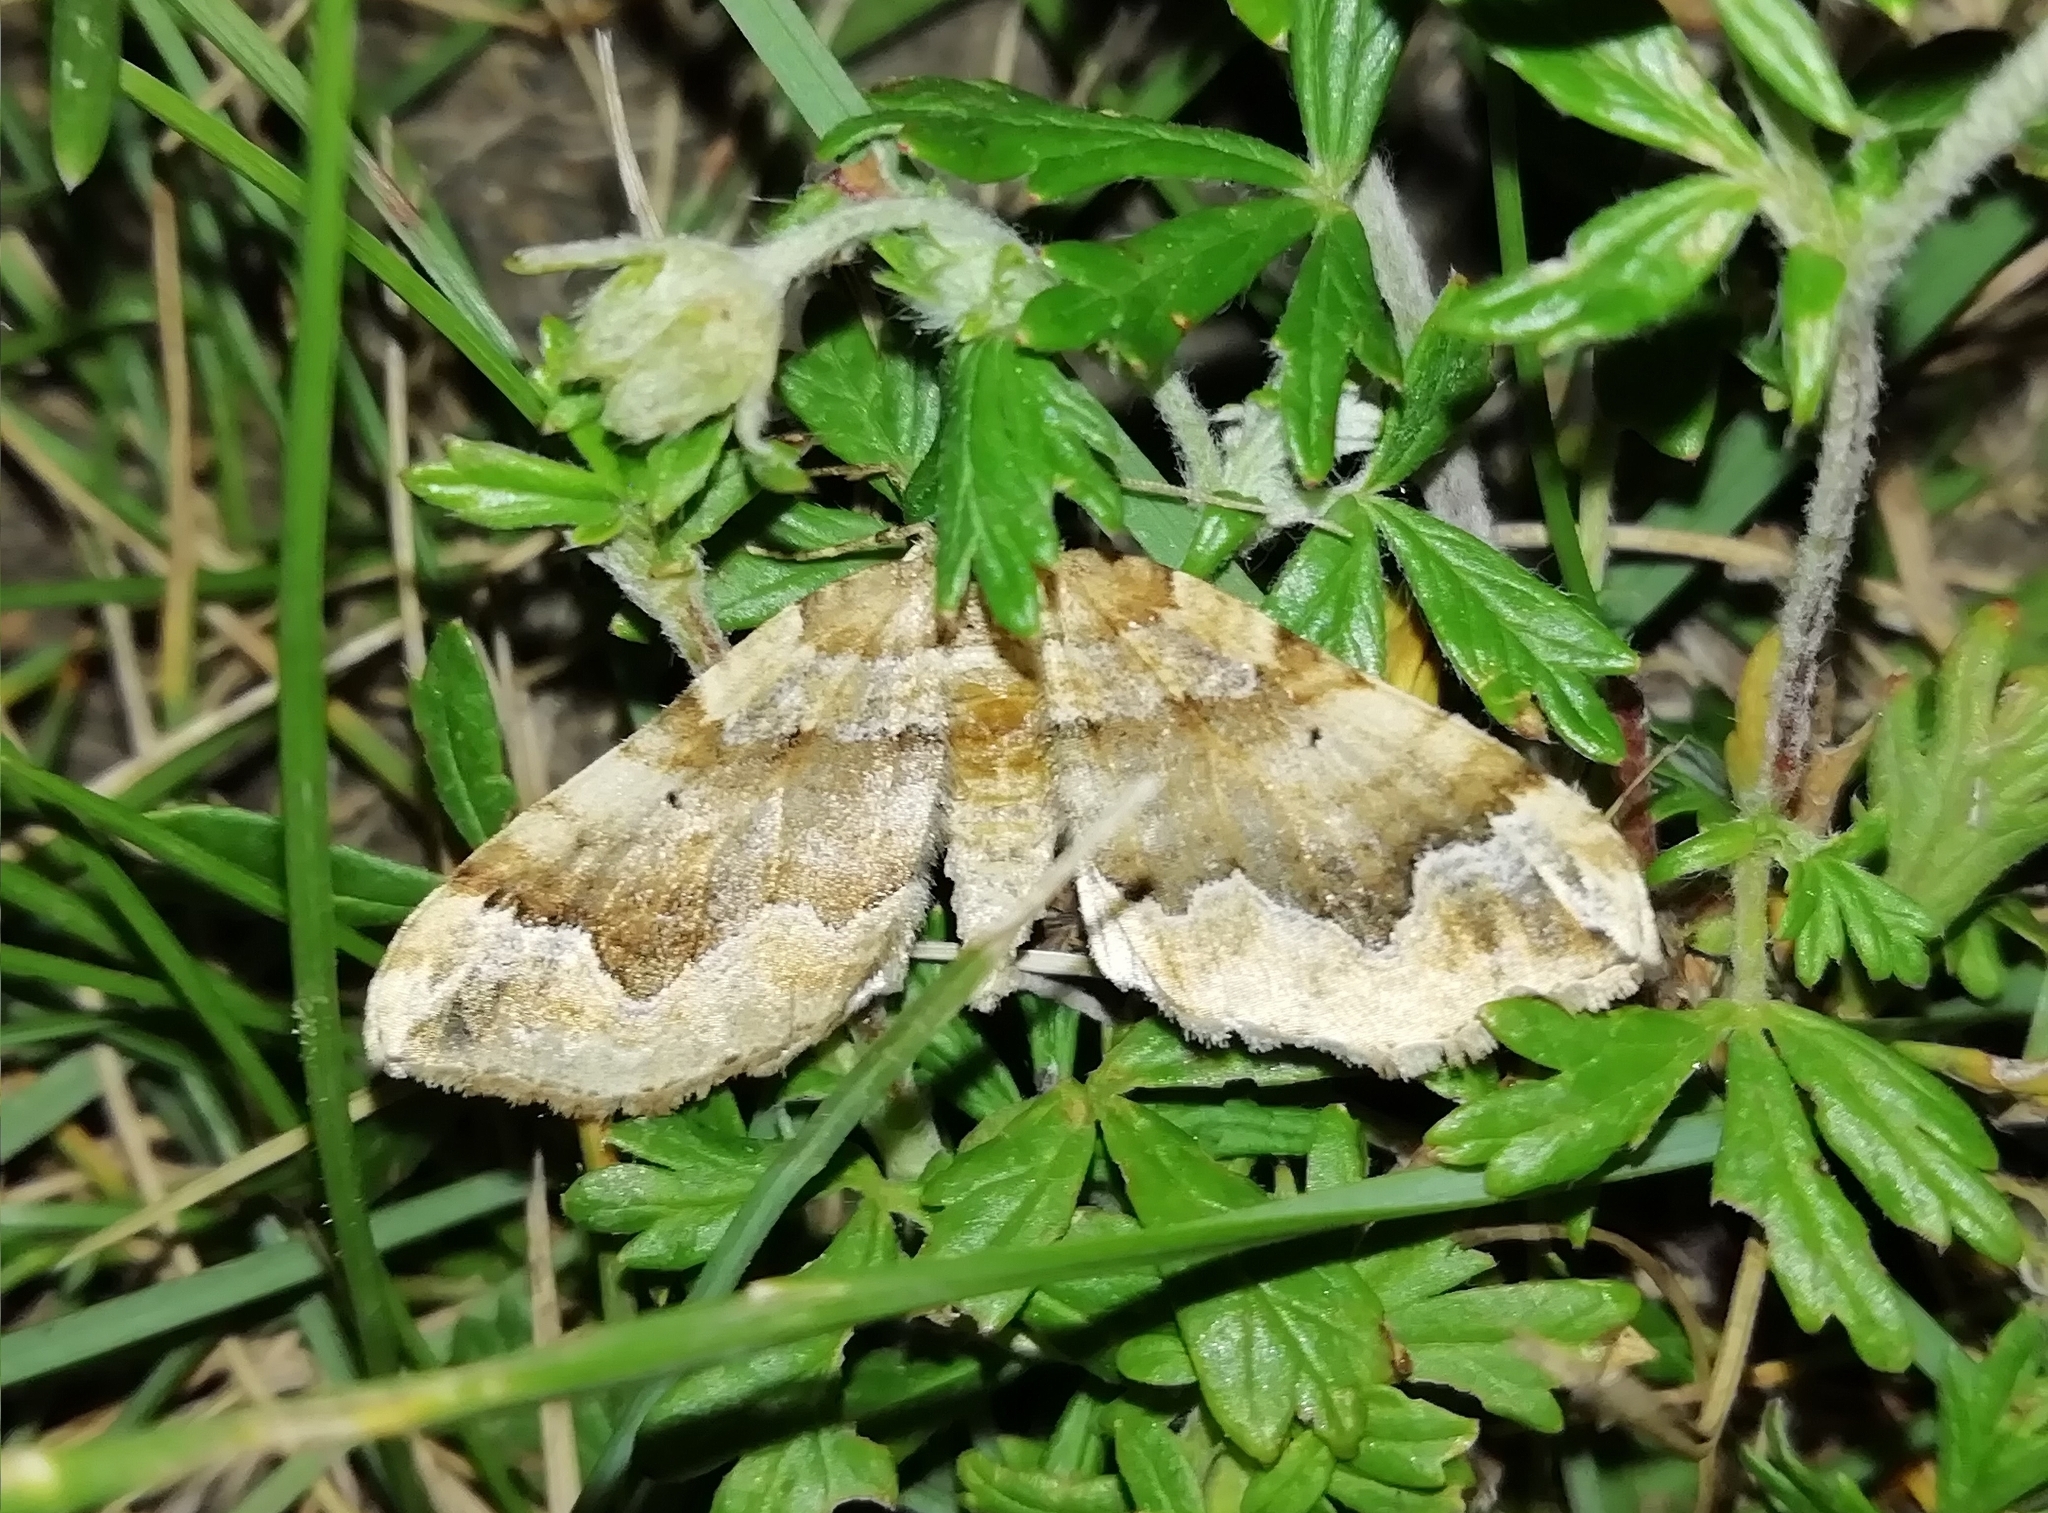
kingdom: Animalia
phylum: Arthropoda
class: Insecta
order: Lepidoptera
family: Geometridae
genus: Pelurga
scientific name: Pelurga comitata
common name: Dark spinach
